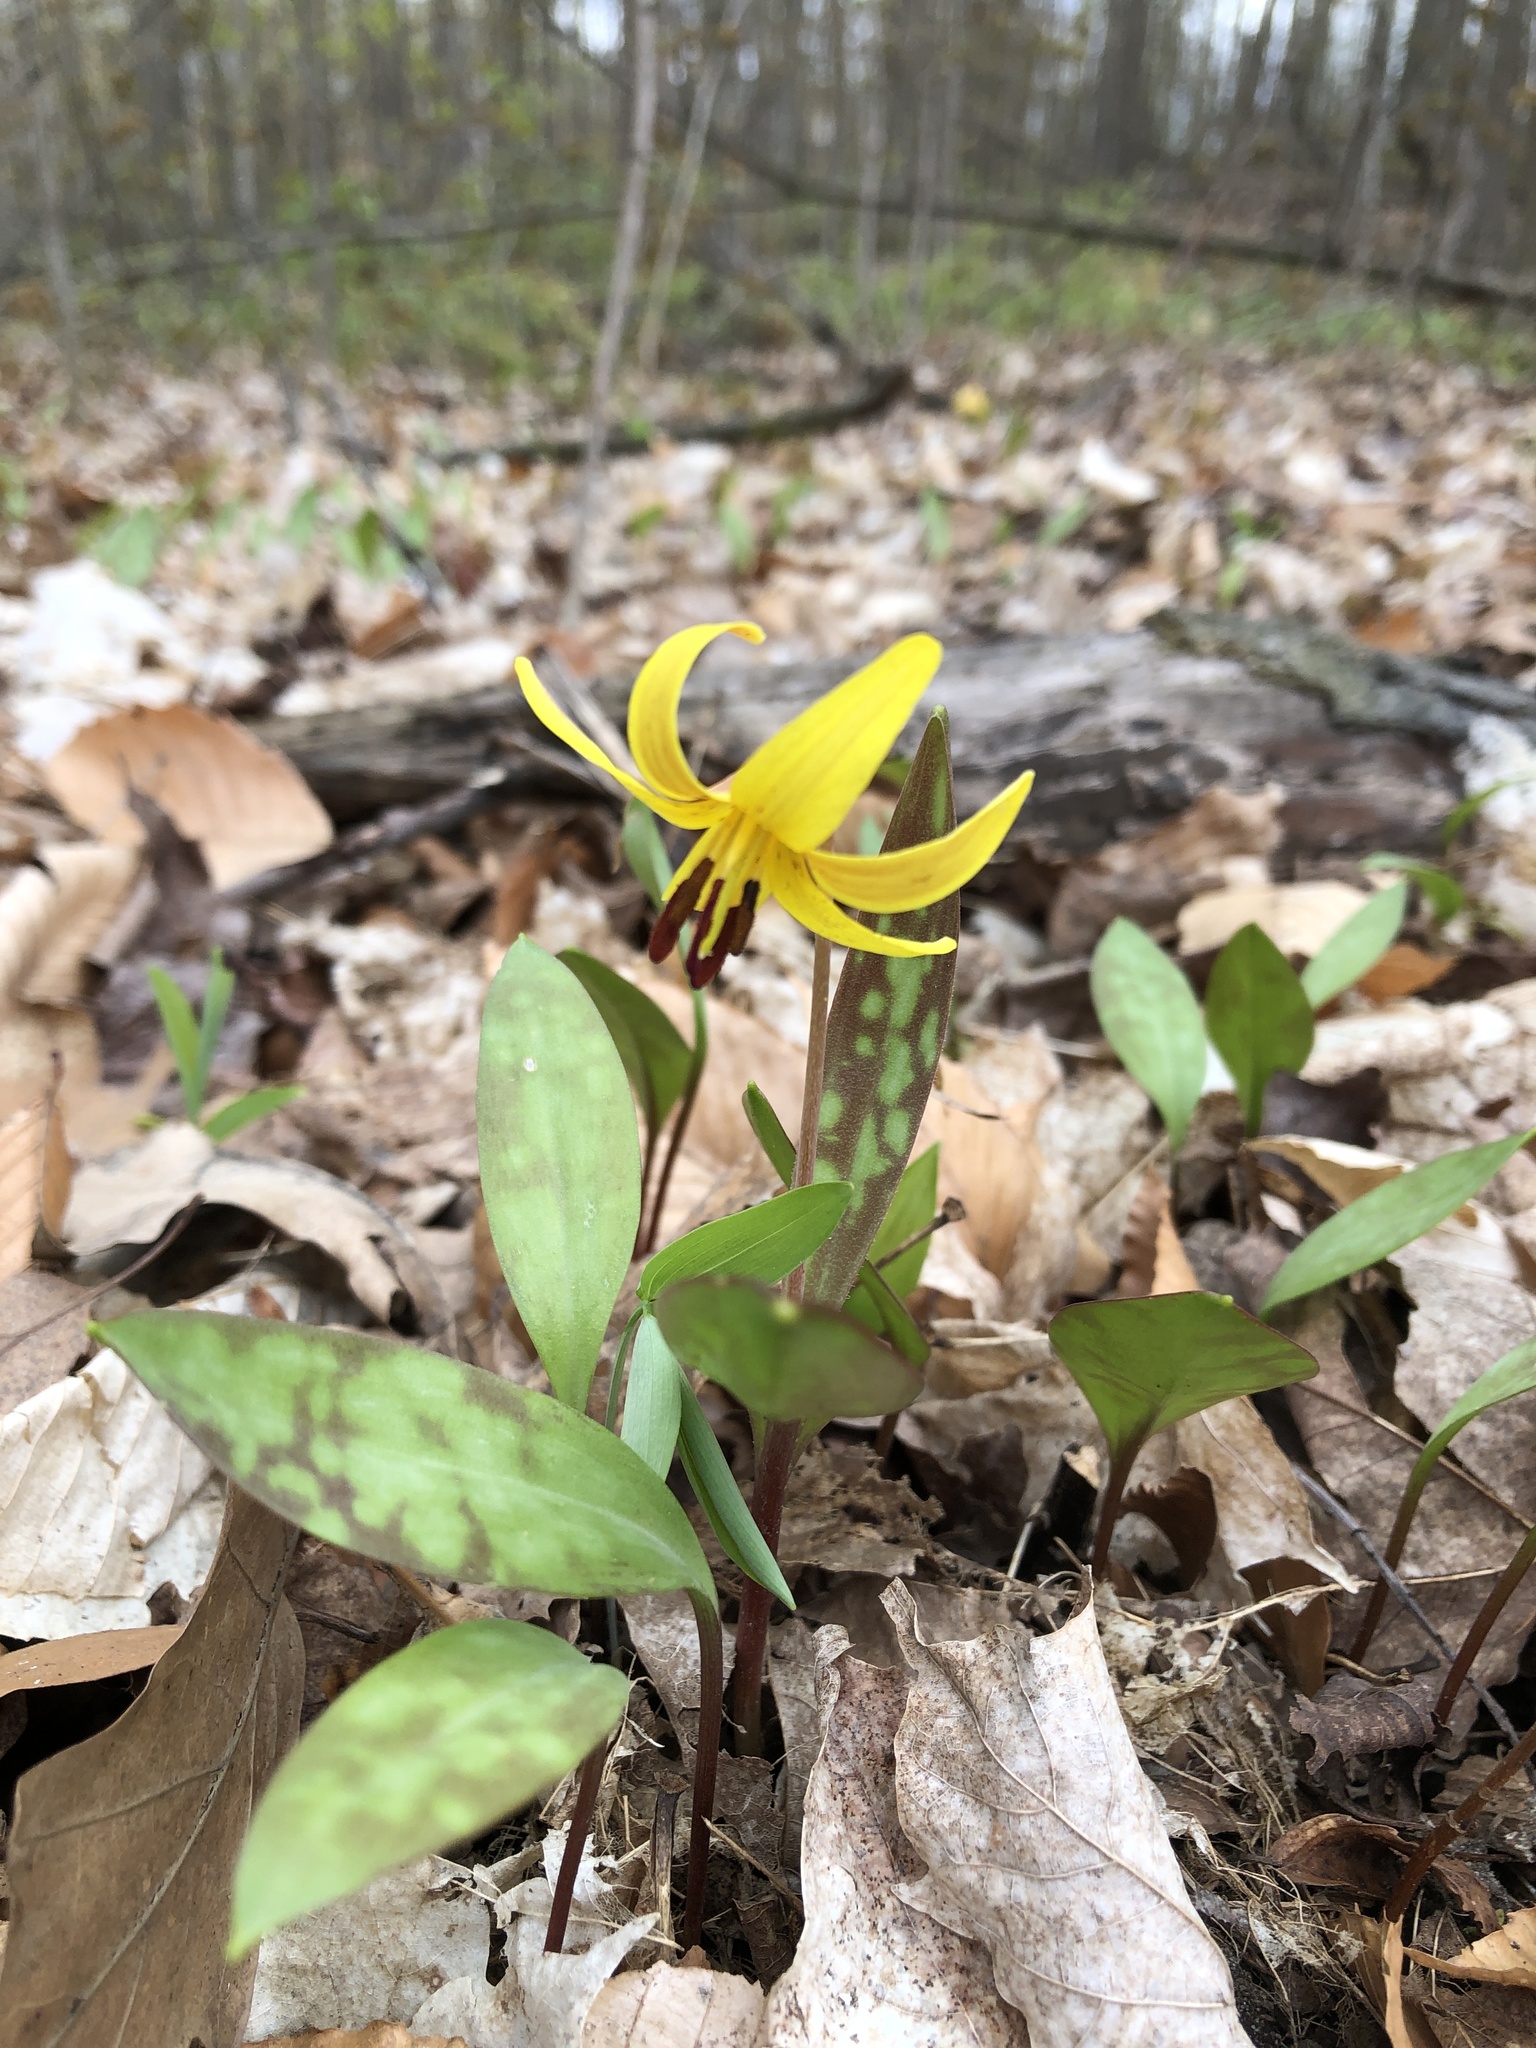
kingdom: Plantae
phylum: Tracheophyta
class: Liliopsida
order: Liliales
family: Liliaceae
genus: Erythronium
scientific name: Erythronium americanum
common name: Yellow adder's-tongue
